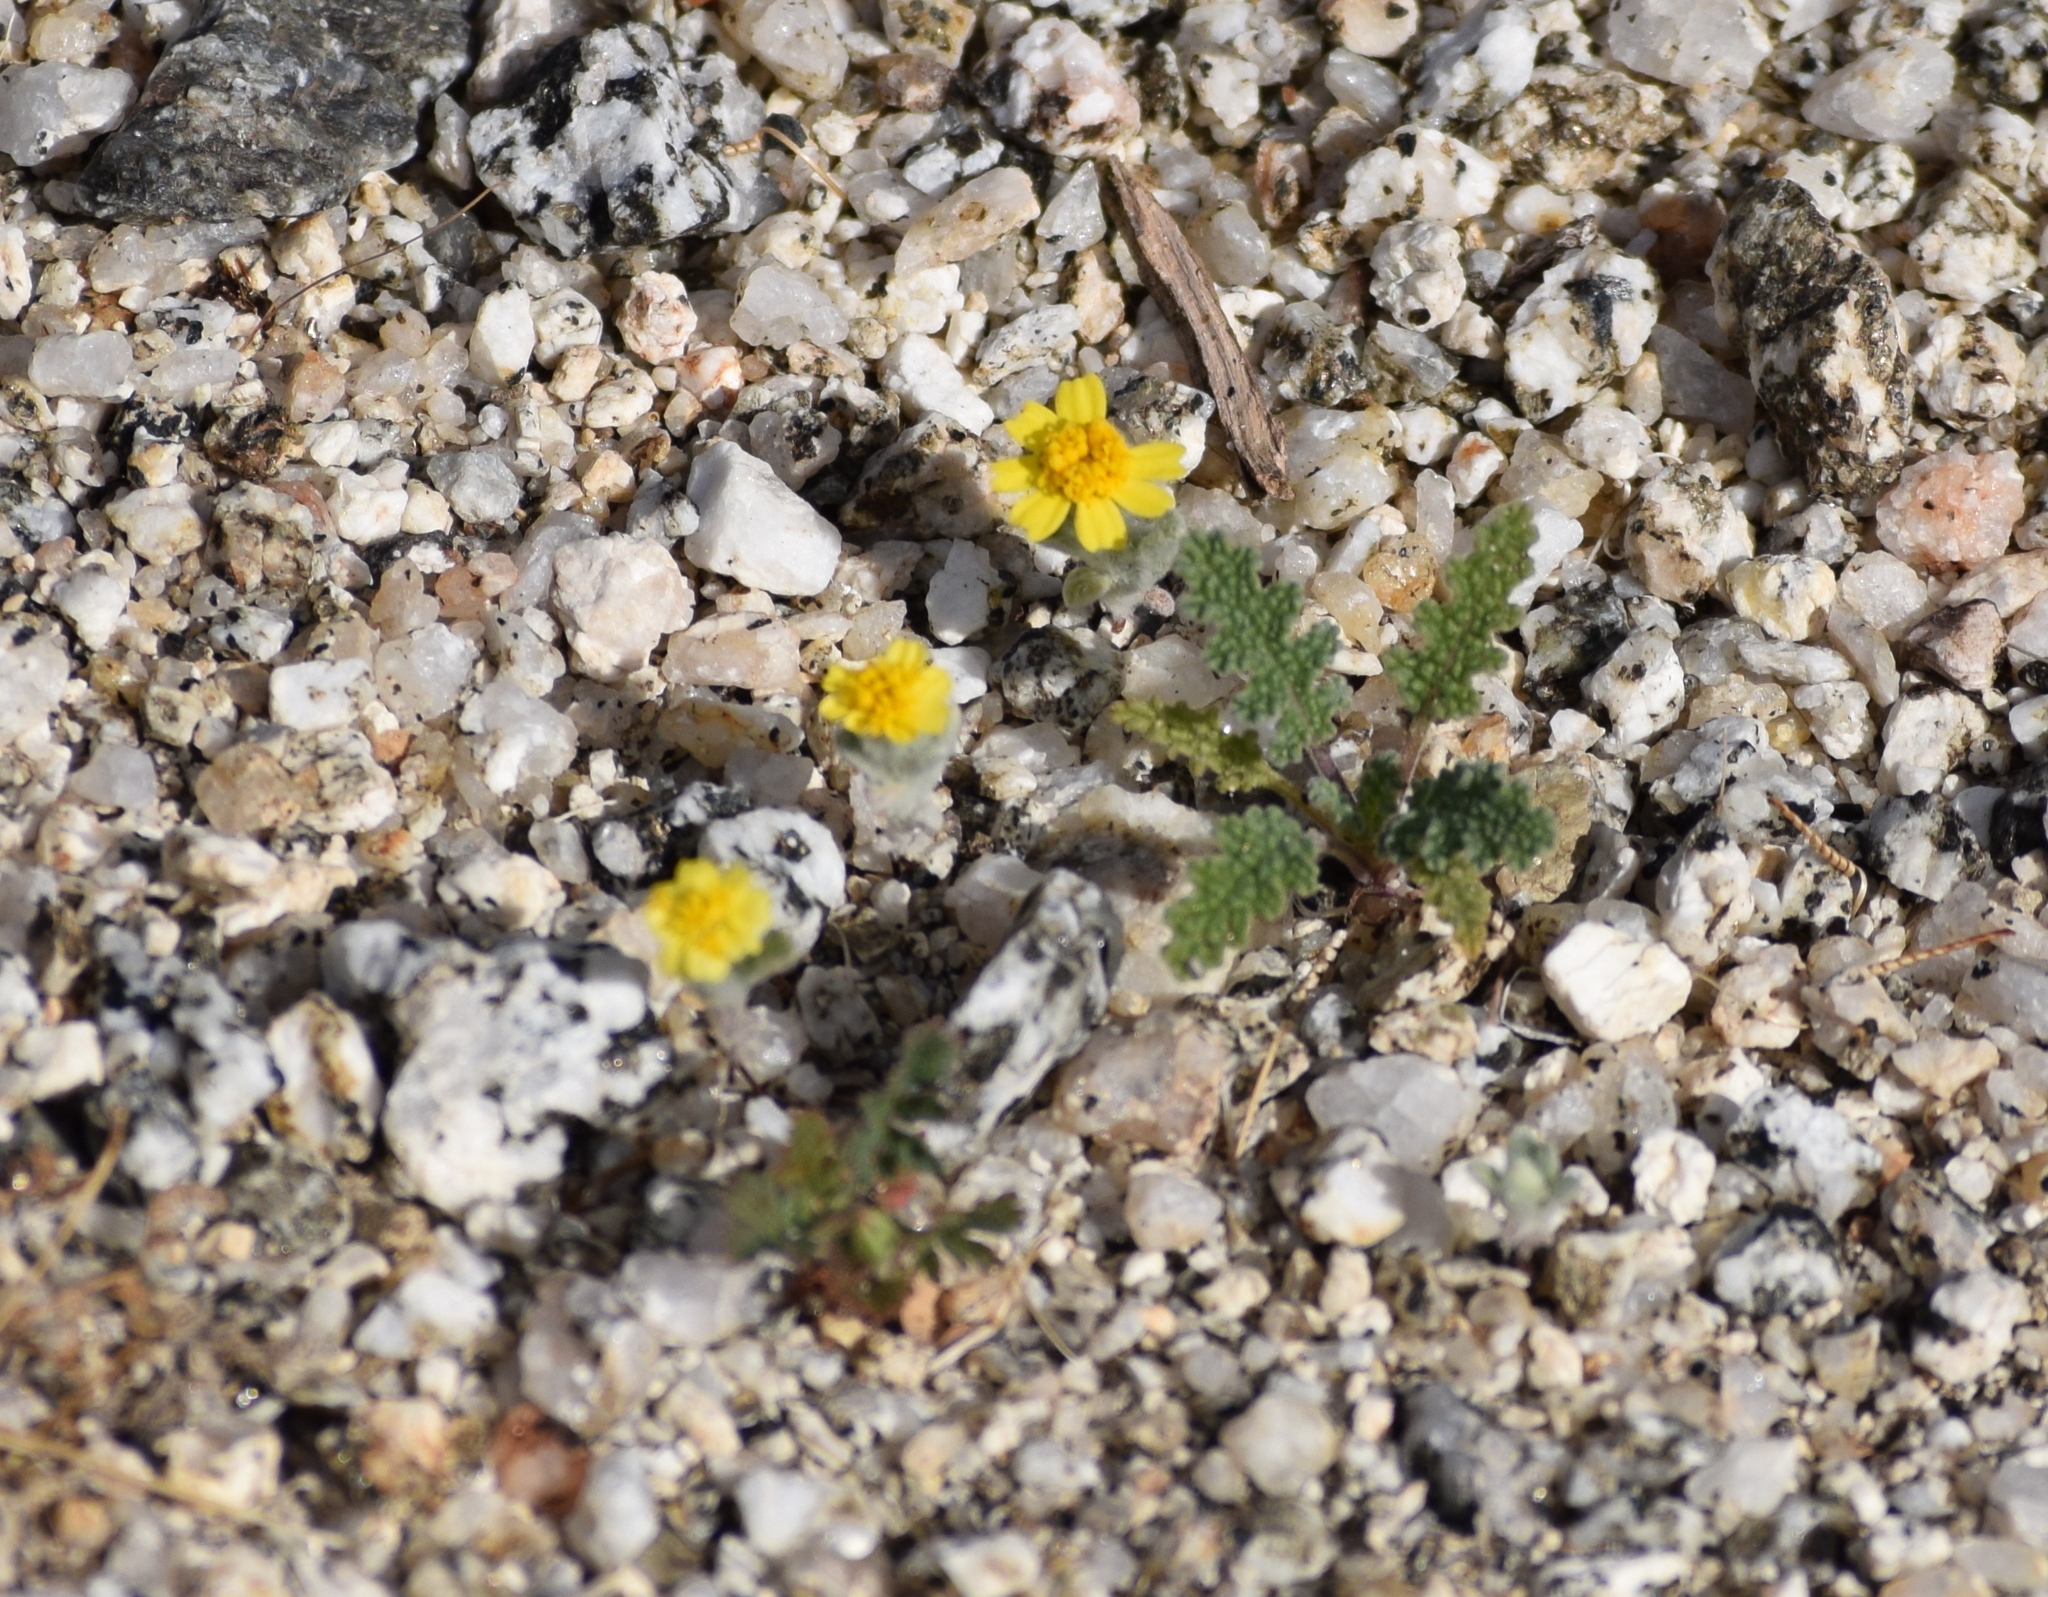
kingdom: Plantae
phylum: Tracheophyta
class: Magnoliopsida
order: Asterales
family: Asteraceae
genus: Eriophyllum
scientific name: Eriophyllum wallacei
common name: Wallace's woolly daisy
